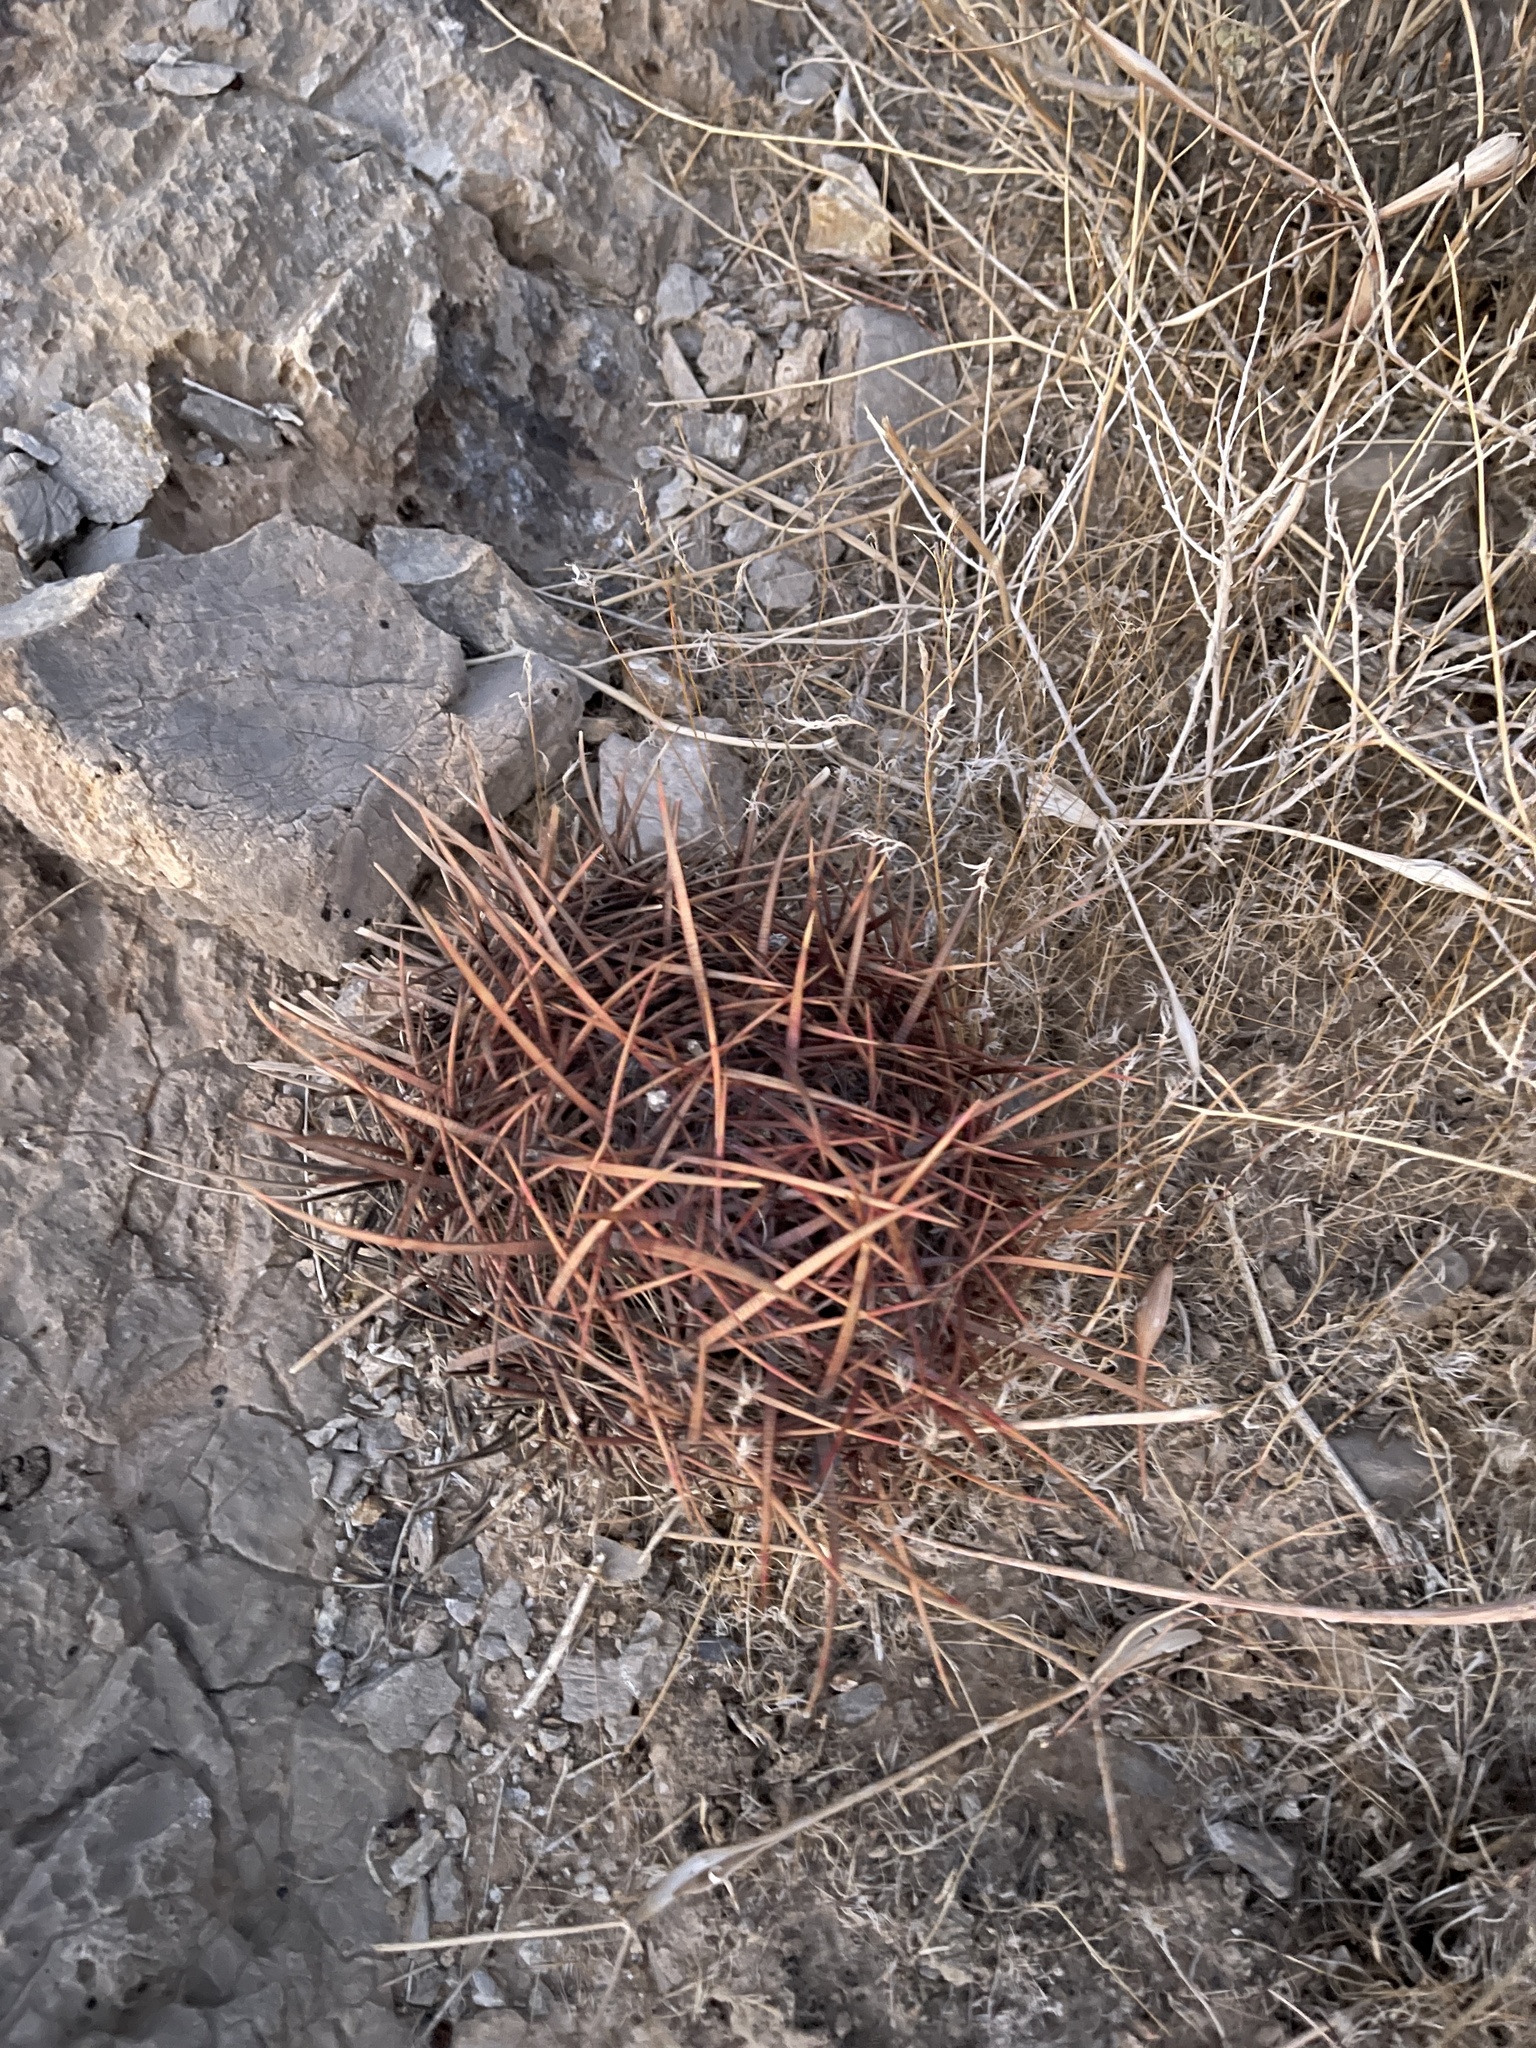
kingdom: Plantae
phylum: Tracheophyta
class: Magnoliopsida
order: Caryophyllales
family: Cactaceae
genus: Ferocactus
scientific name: Ferocactus cylindraceus
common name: California barrel cactus
